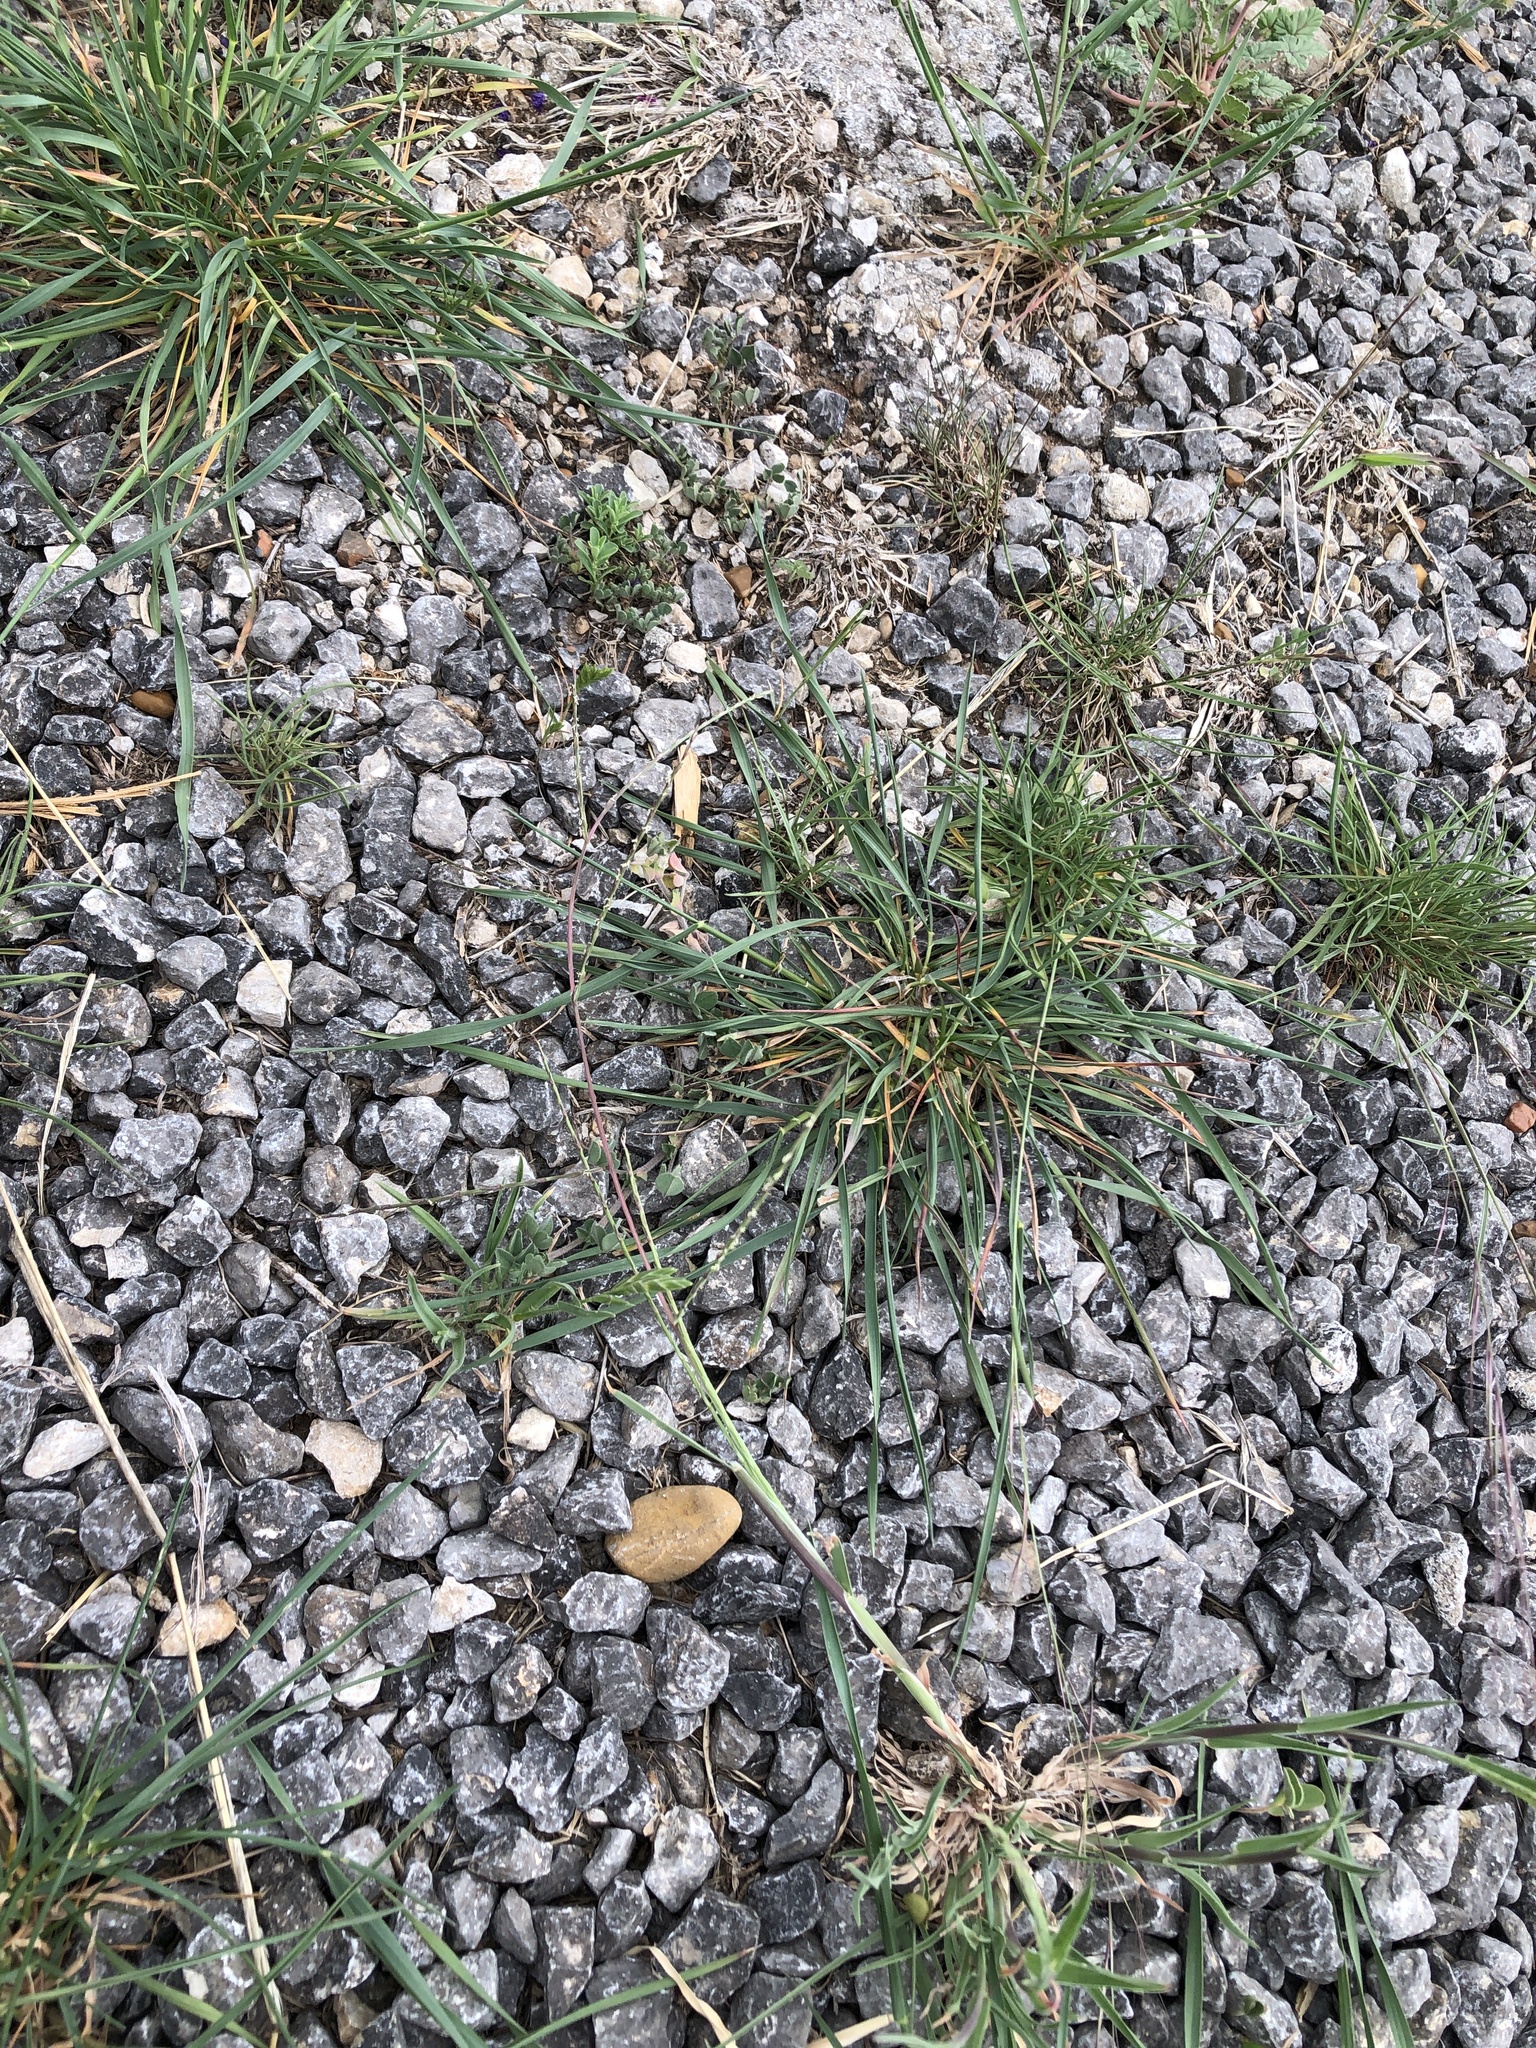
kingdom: Plantae
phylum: Tracheophyta
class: Liliopsida
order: Poales
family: Poaceae
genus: Muhlenbergia
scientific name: Muhlenbergia paniculata
